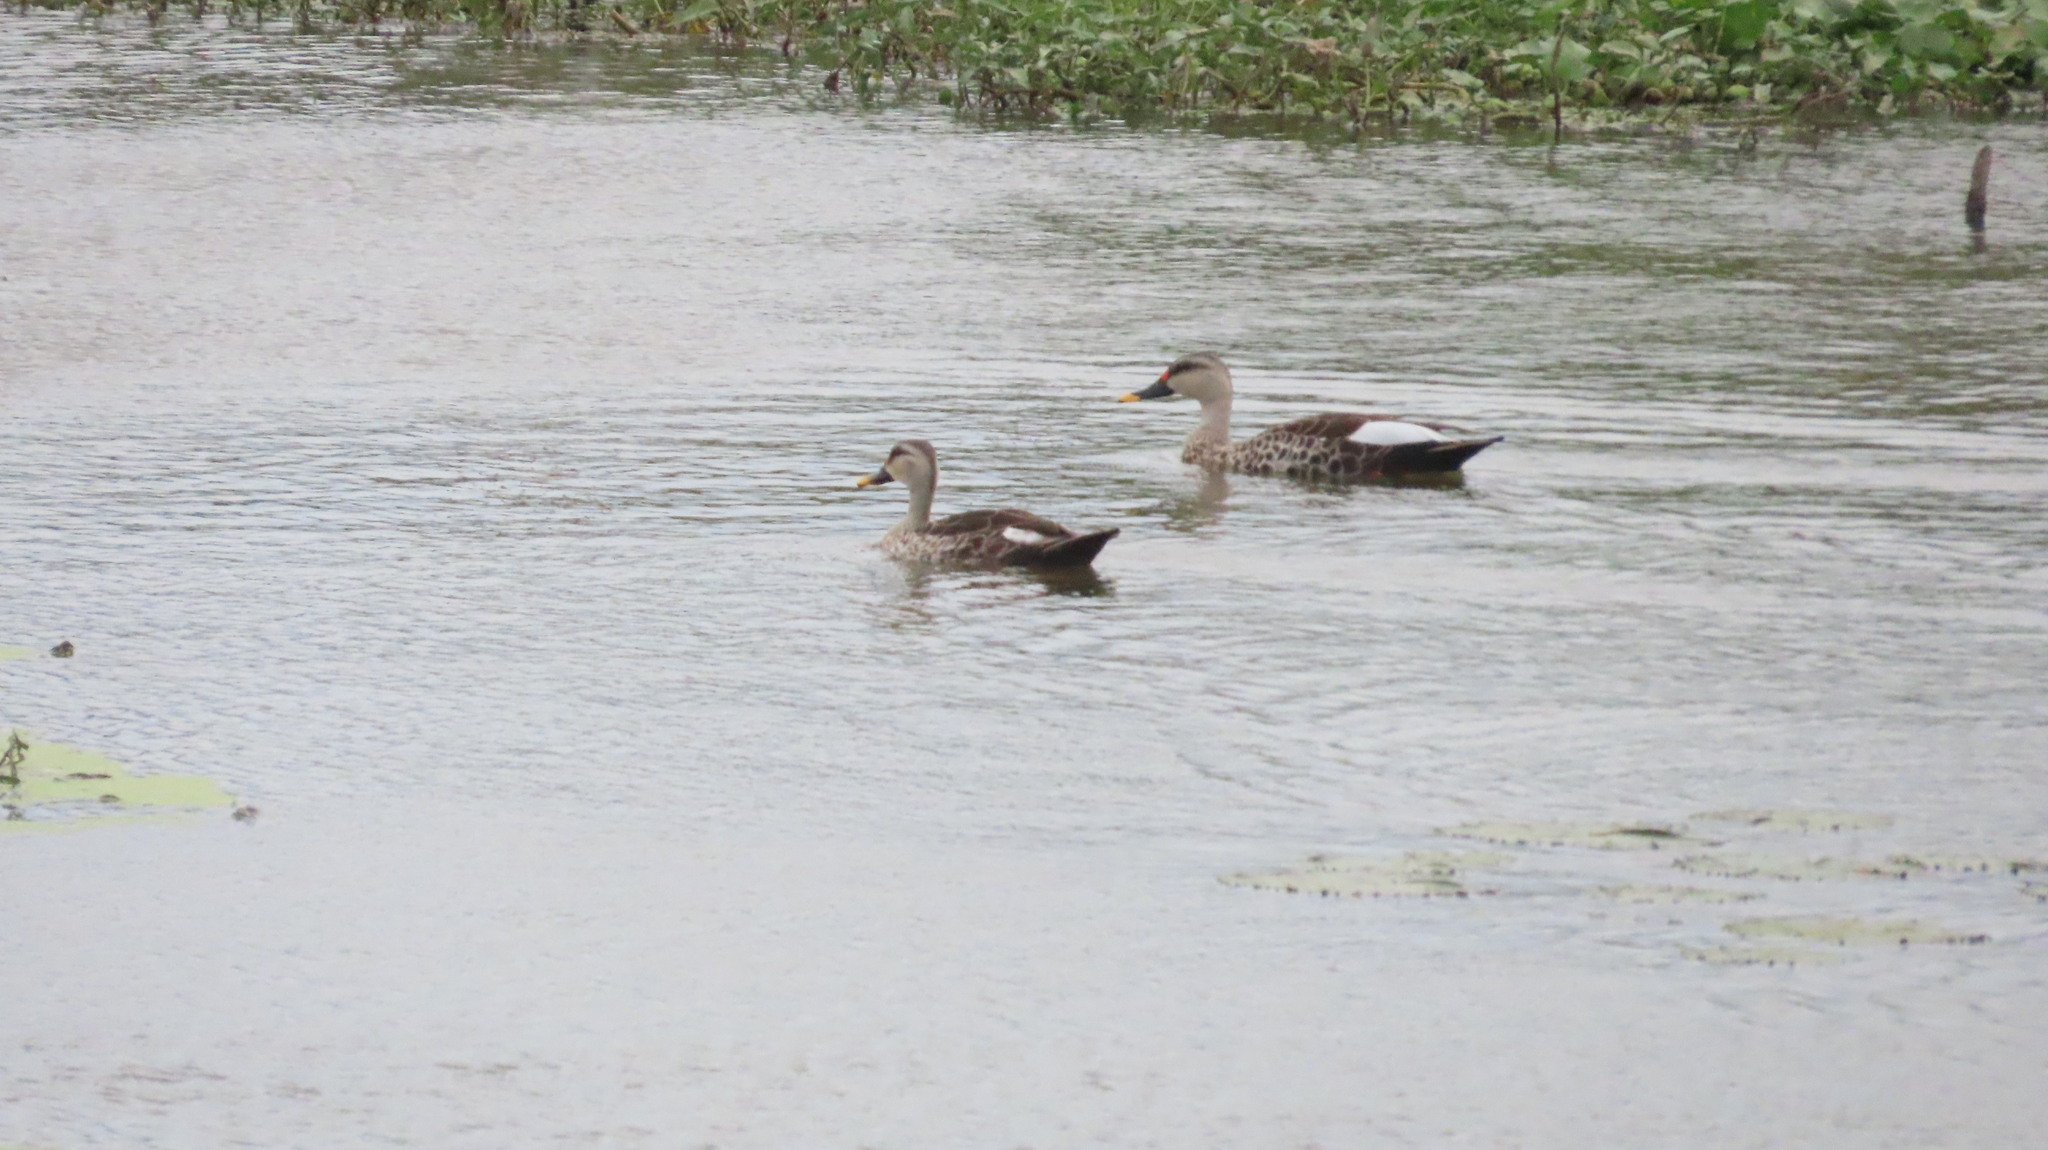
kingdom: Animalia
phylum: Chordata
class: Aves
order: Anseriformes
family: Anatidae
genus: Anas
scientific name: Anas poecilorhyncha
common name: Indian spot-billed duck
